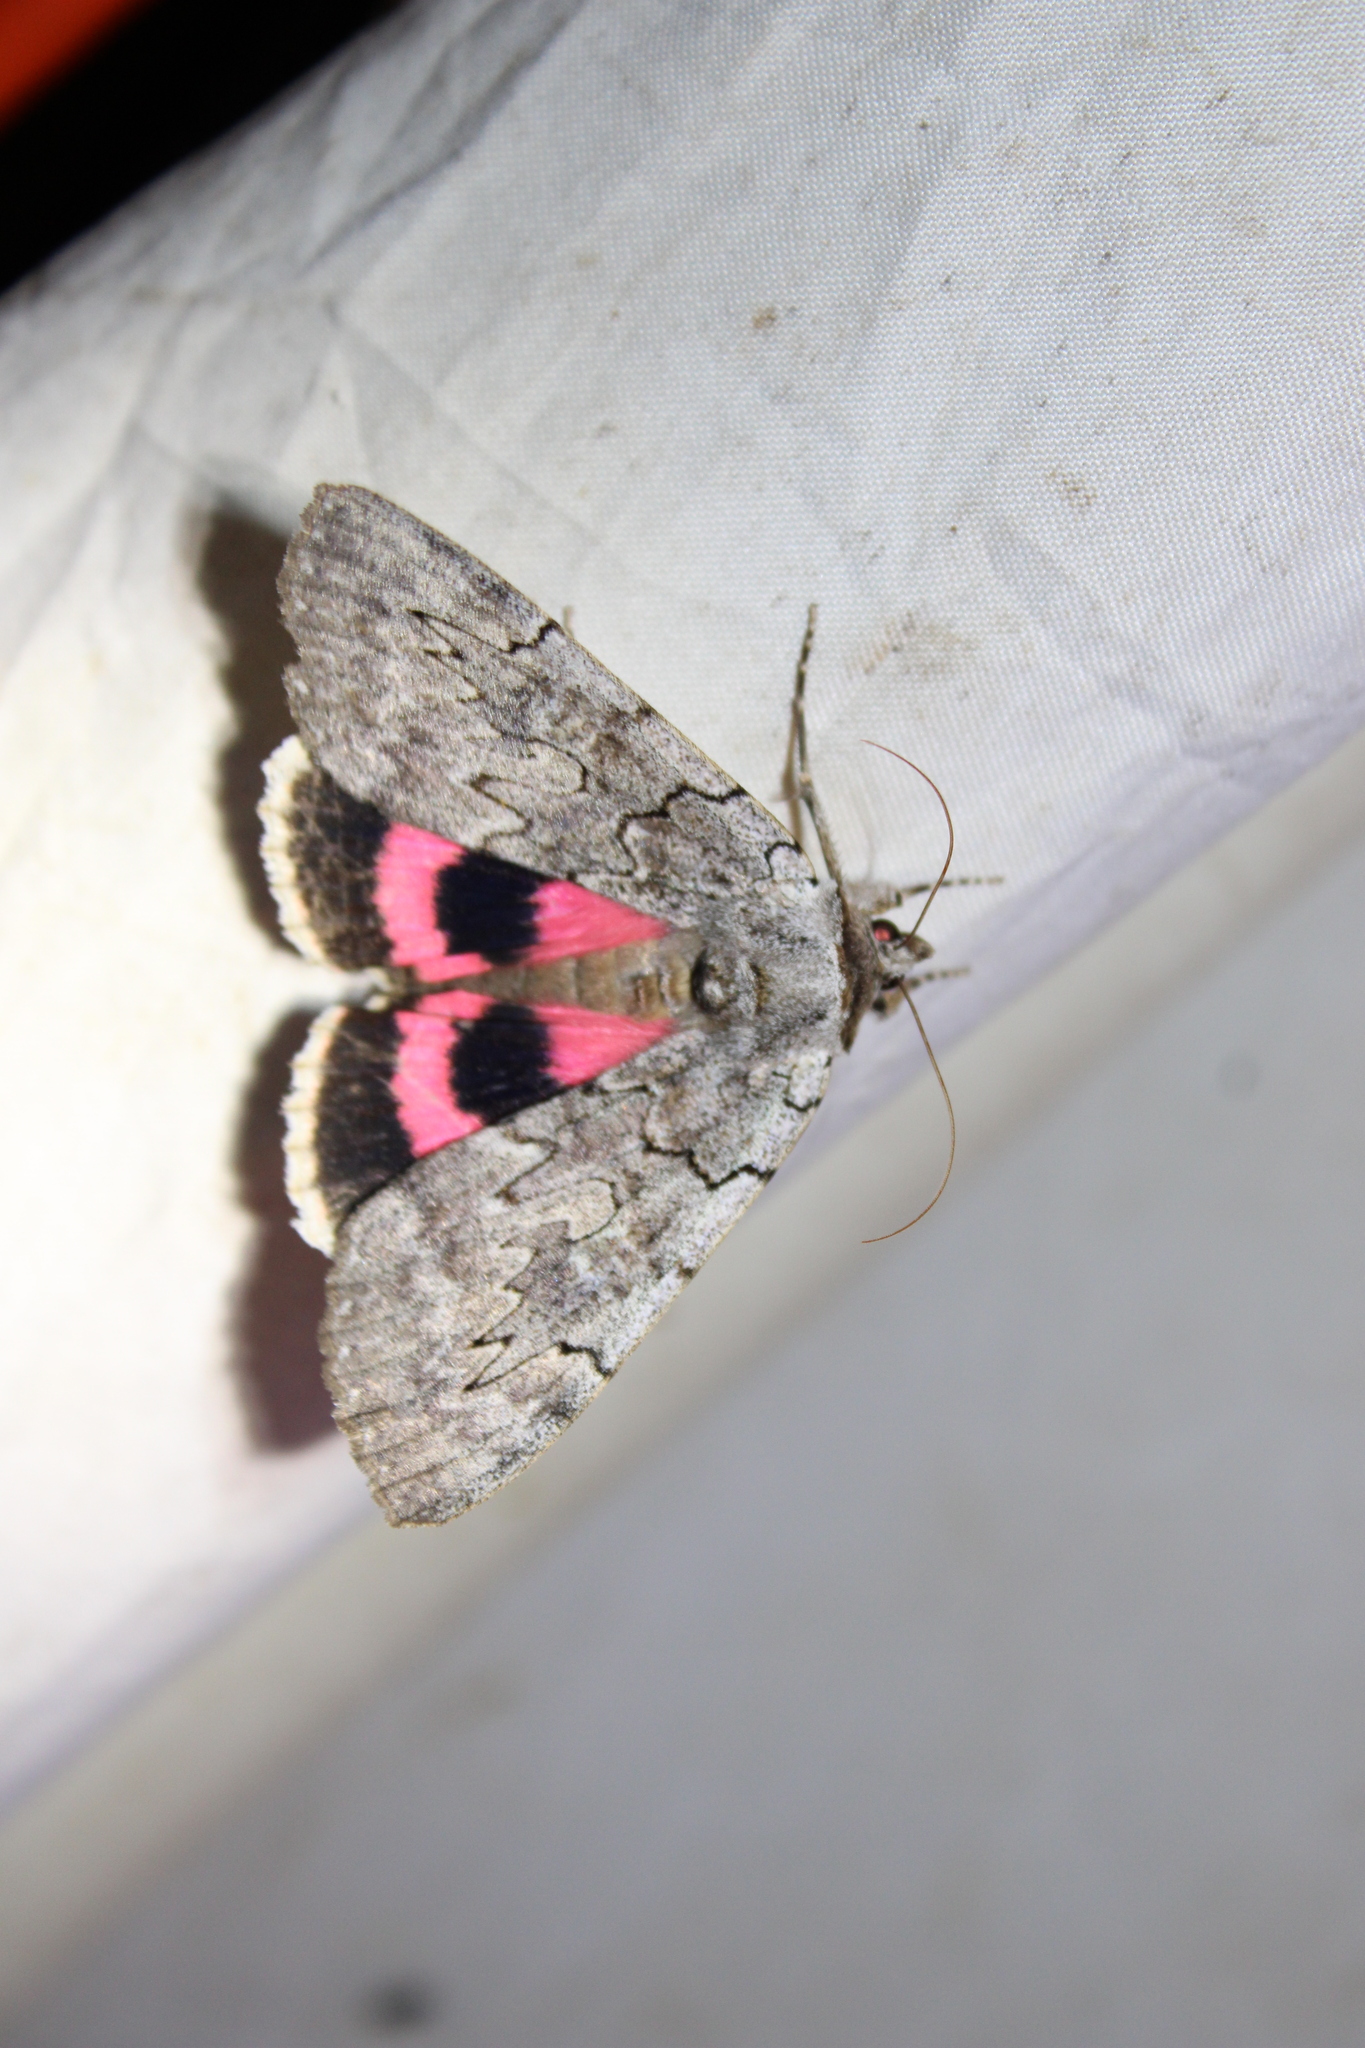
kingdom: Animalia
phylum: Arthropoda
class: Insecta
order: Lepidoptera
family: Erebidae
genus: Catocala
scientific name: Catocala concumbens
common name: Pink underwing
